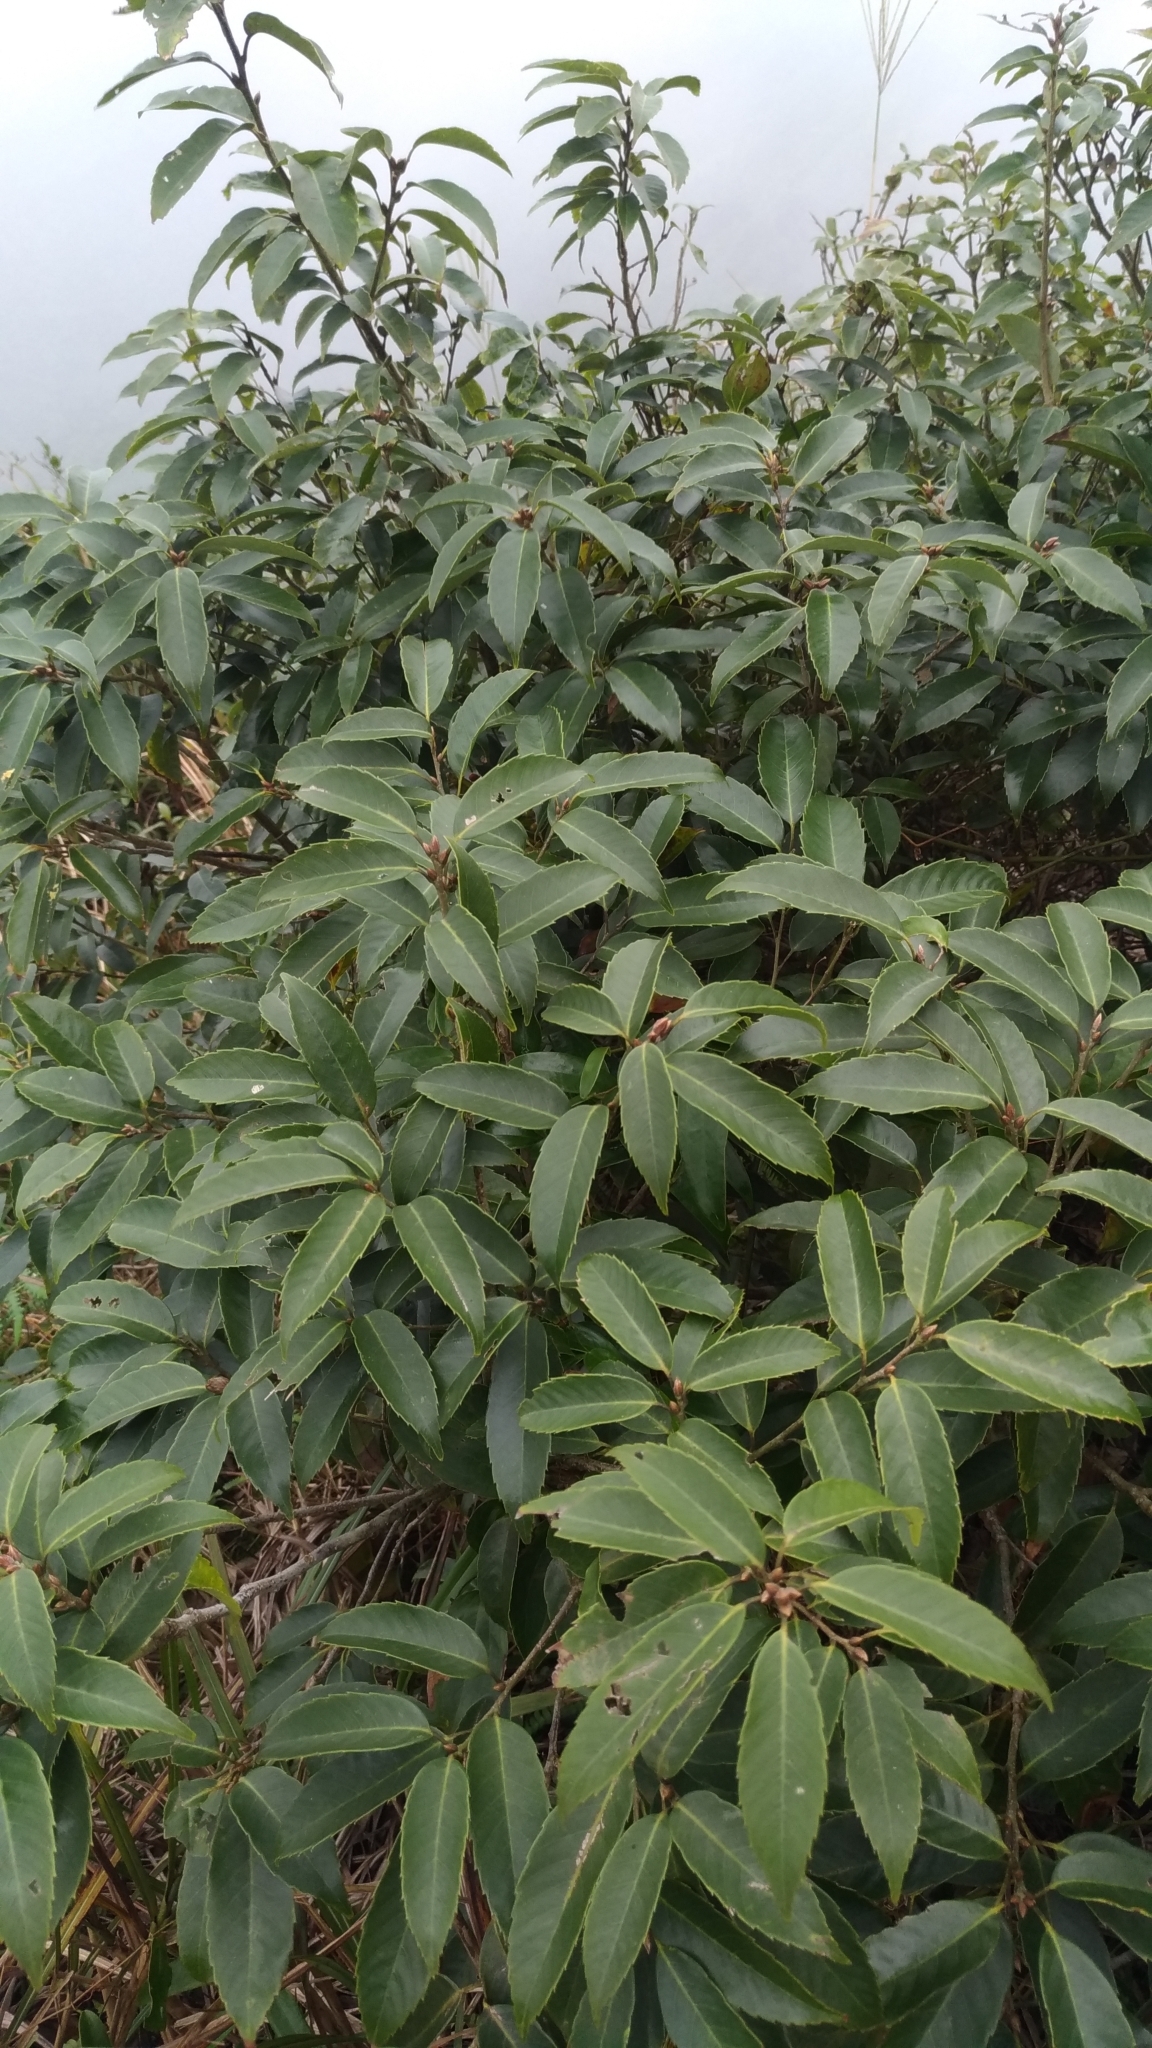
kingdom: Plantae
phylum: Tracheophyta
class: Magnoliopsida
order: Fagales
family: Fagaceae
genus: Quercus
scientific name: Quercus stenophylloides
